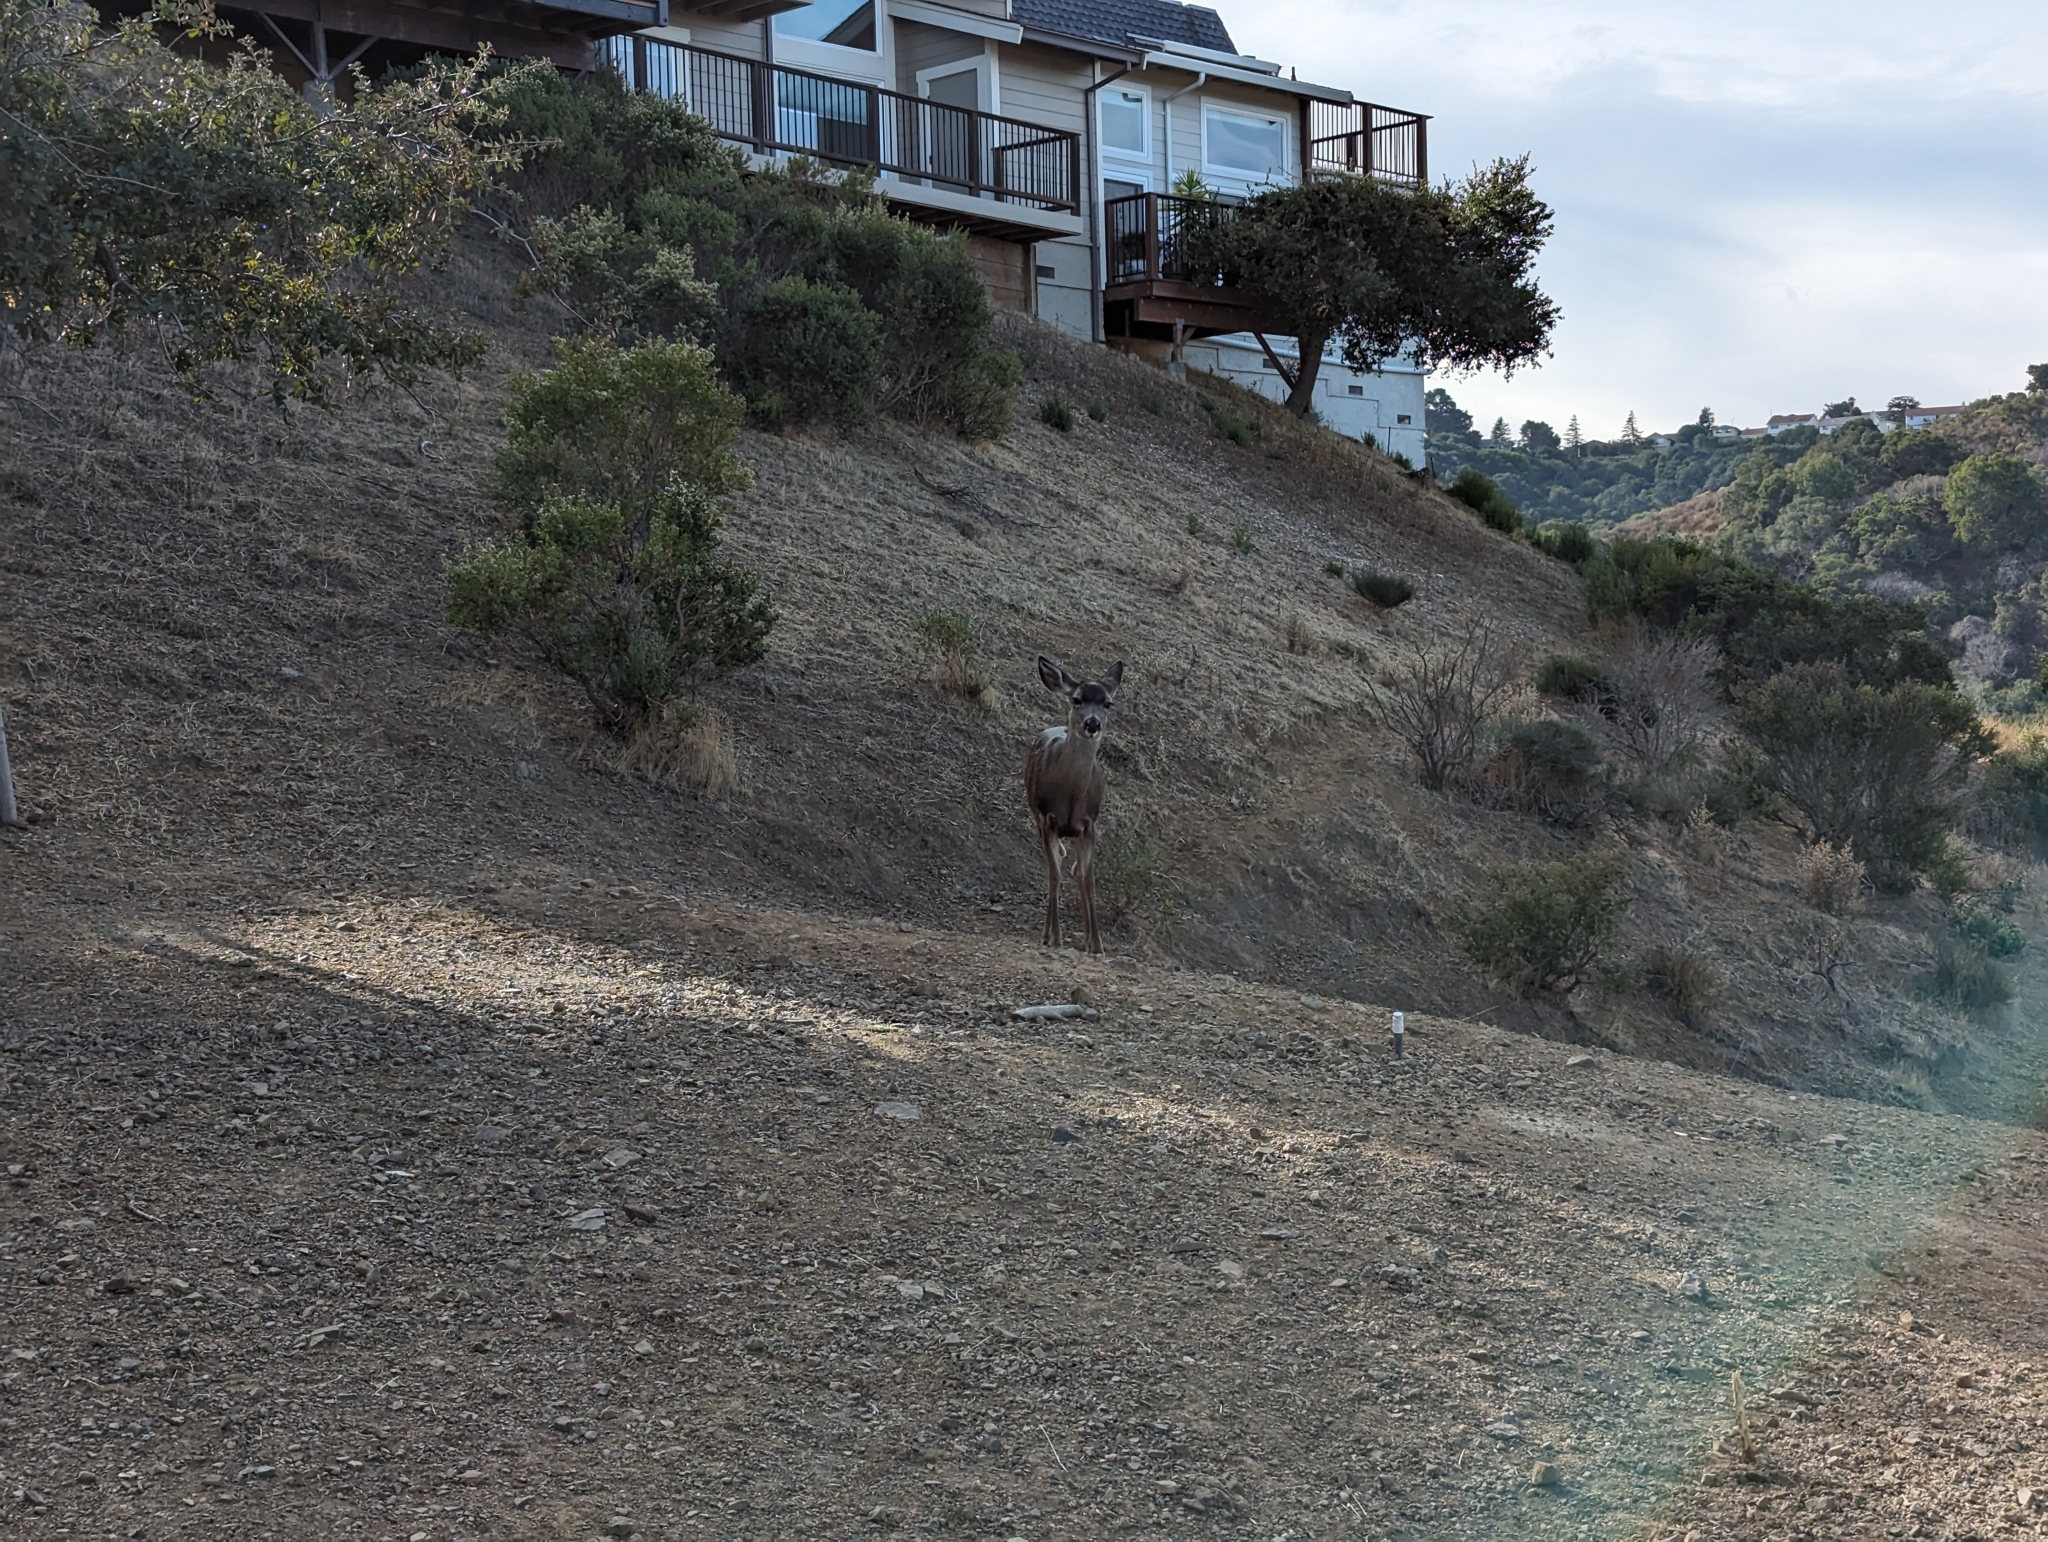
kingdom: Animalia
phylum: Chordata
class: Mammalia
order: Artiodactyla
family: Cervidae
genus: Odocoileus
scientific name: Odocoileus hemionus
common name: Mule deer
